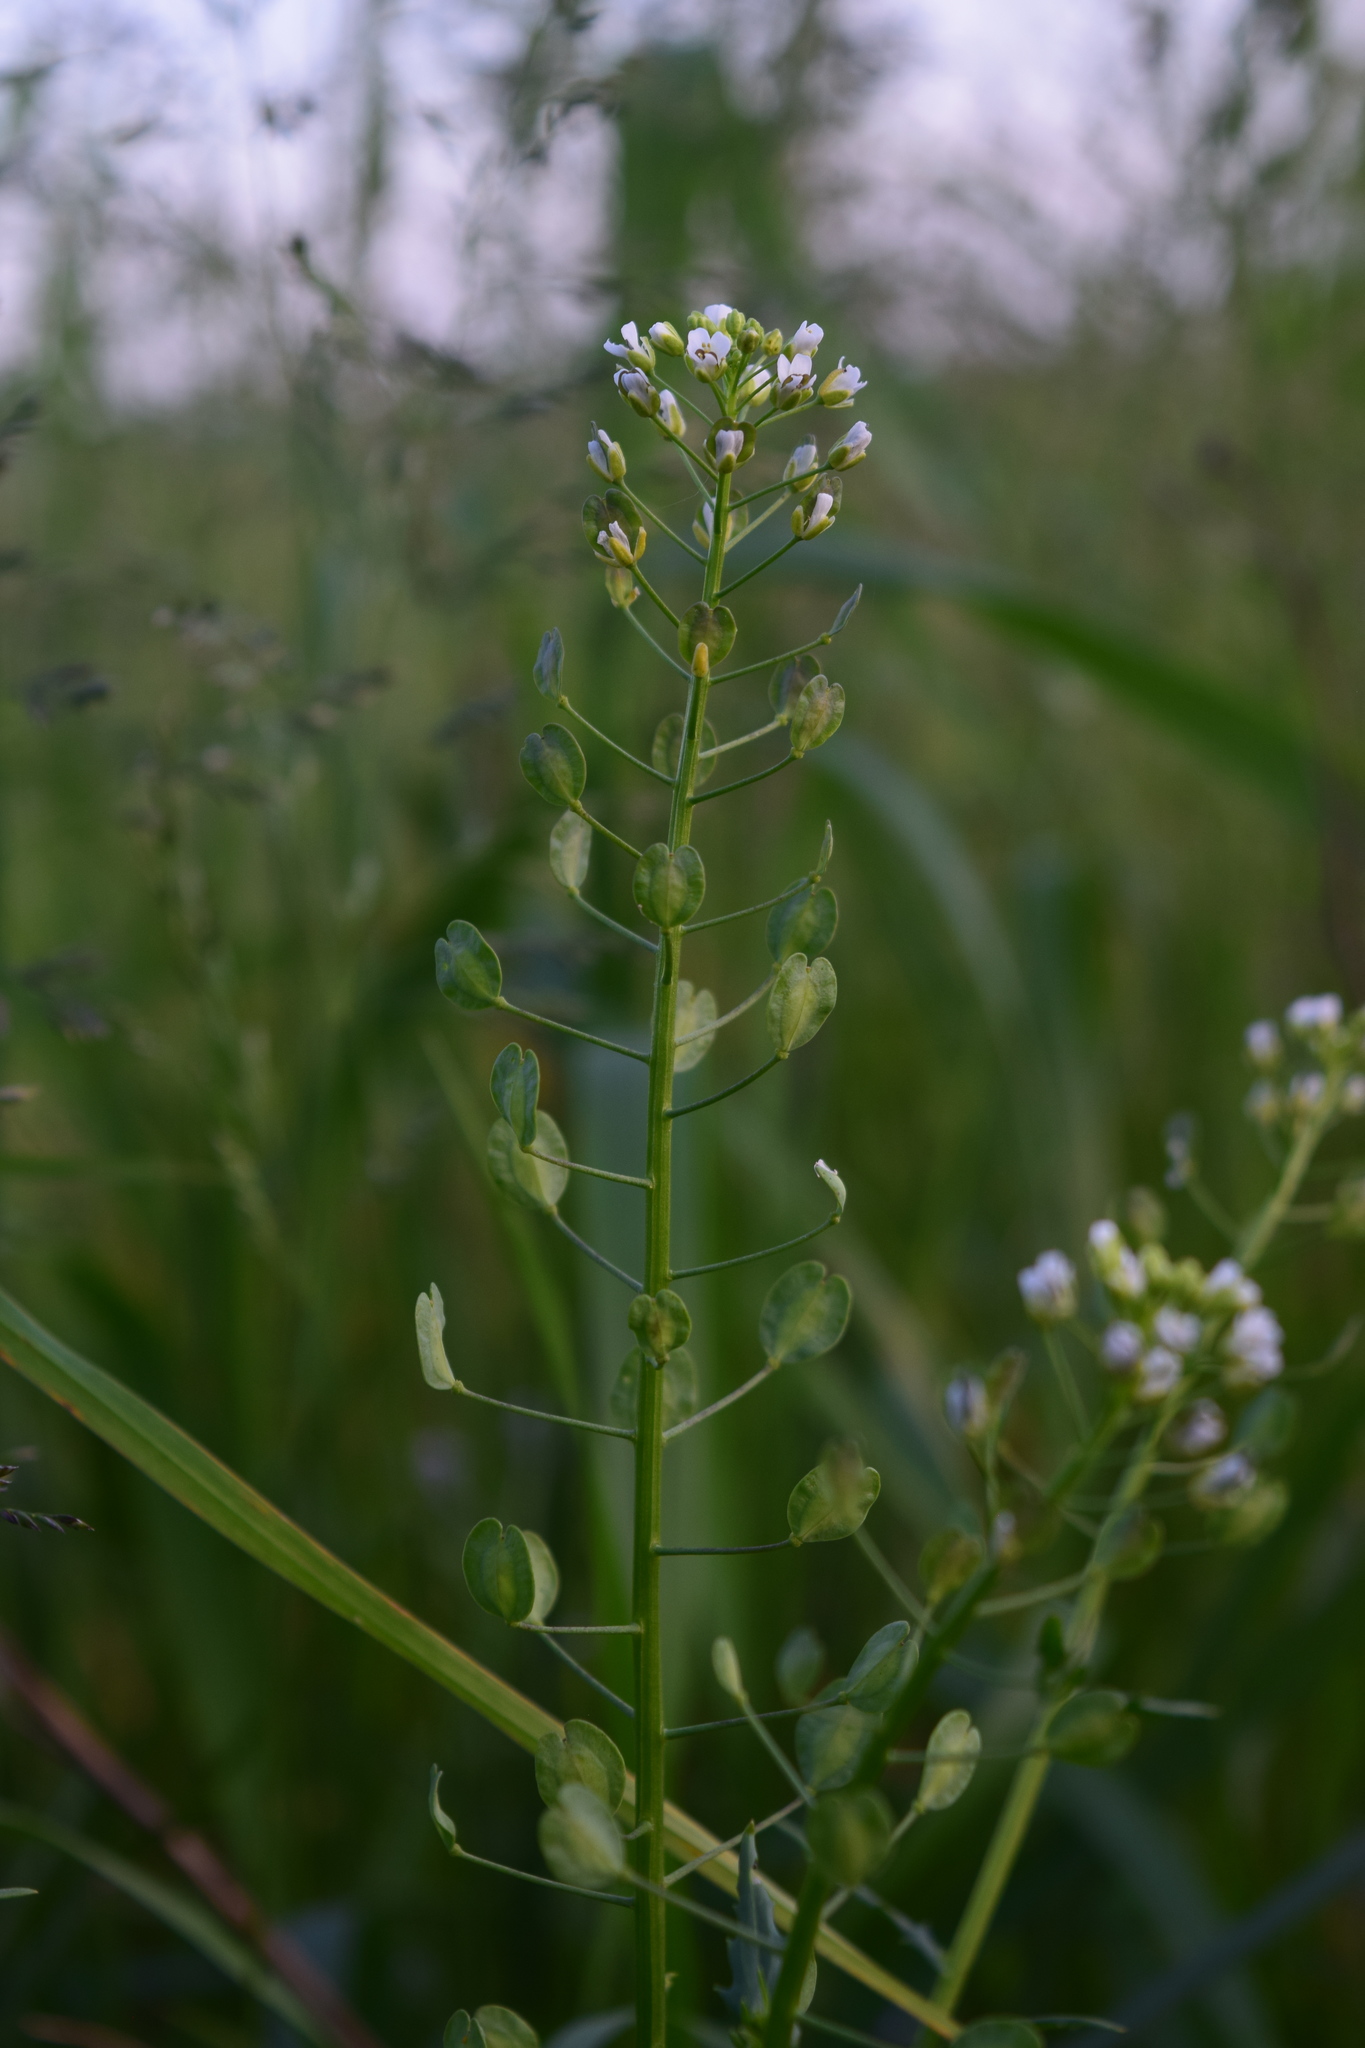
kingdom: Plantae
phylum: Tracheophyta
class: Magnoliopsida
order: Brassicales
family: Brassicaceae
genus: Thlaspi
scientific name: Thlaspi arvense
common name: Field pennycress
